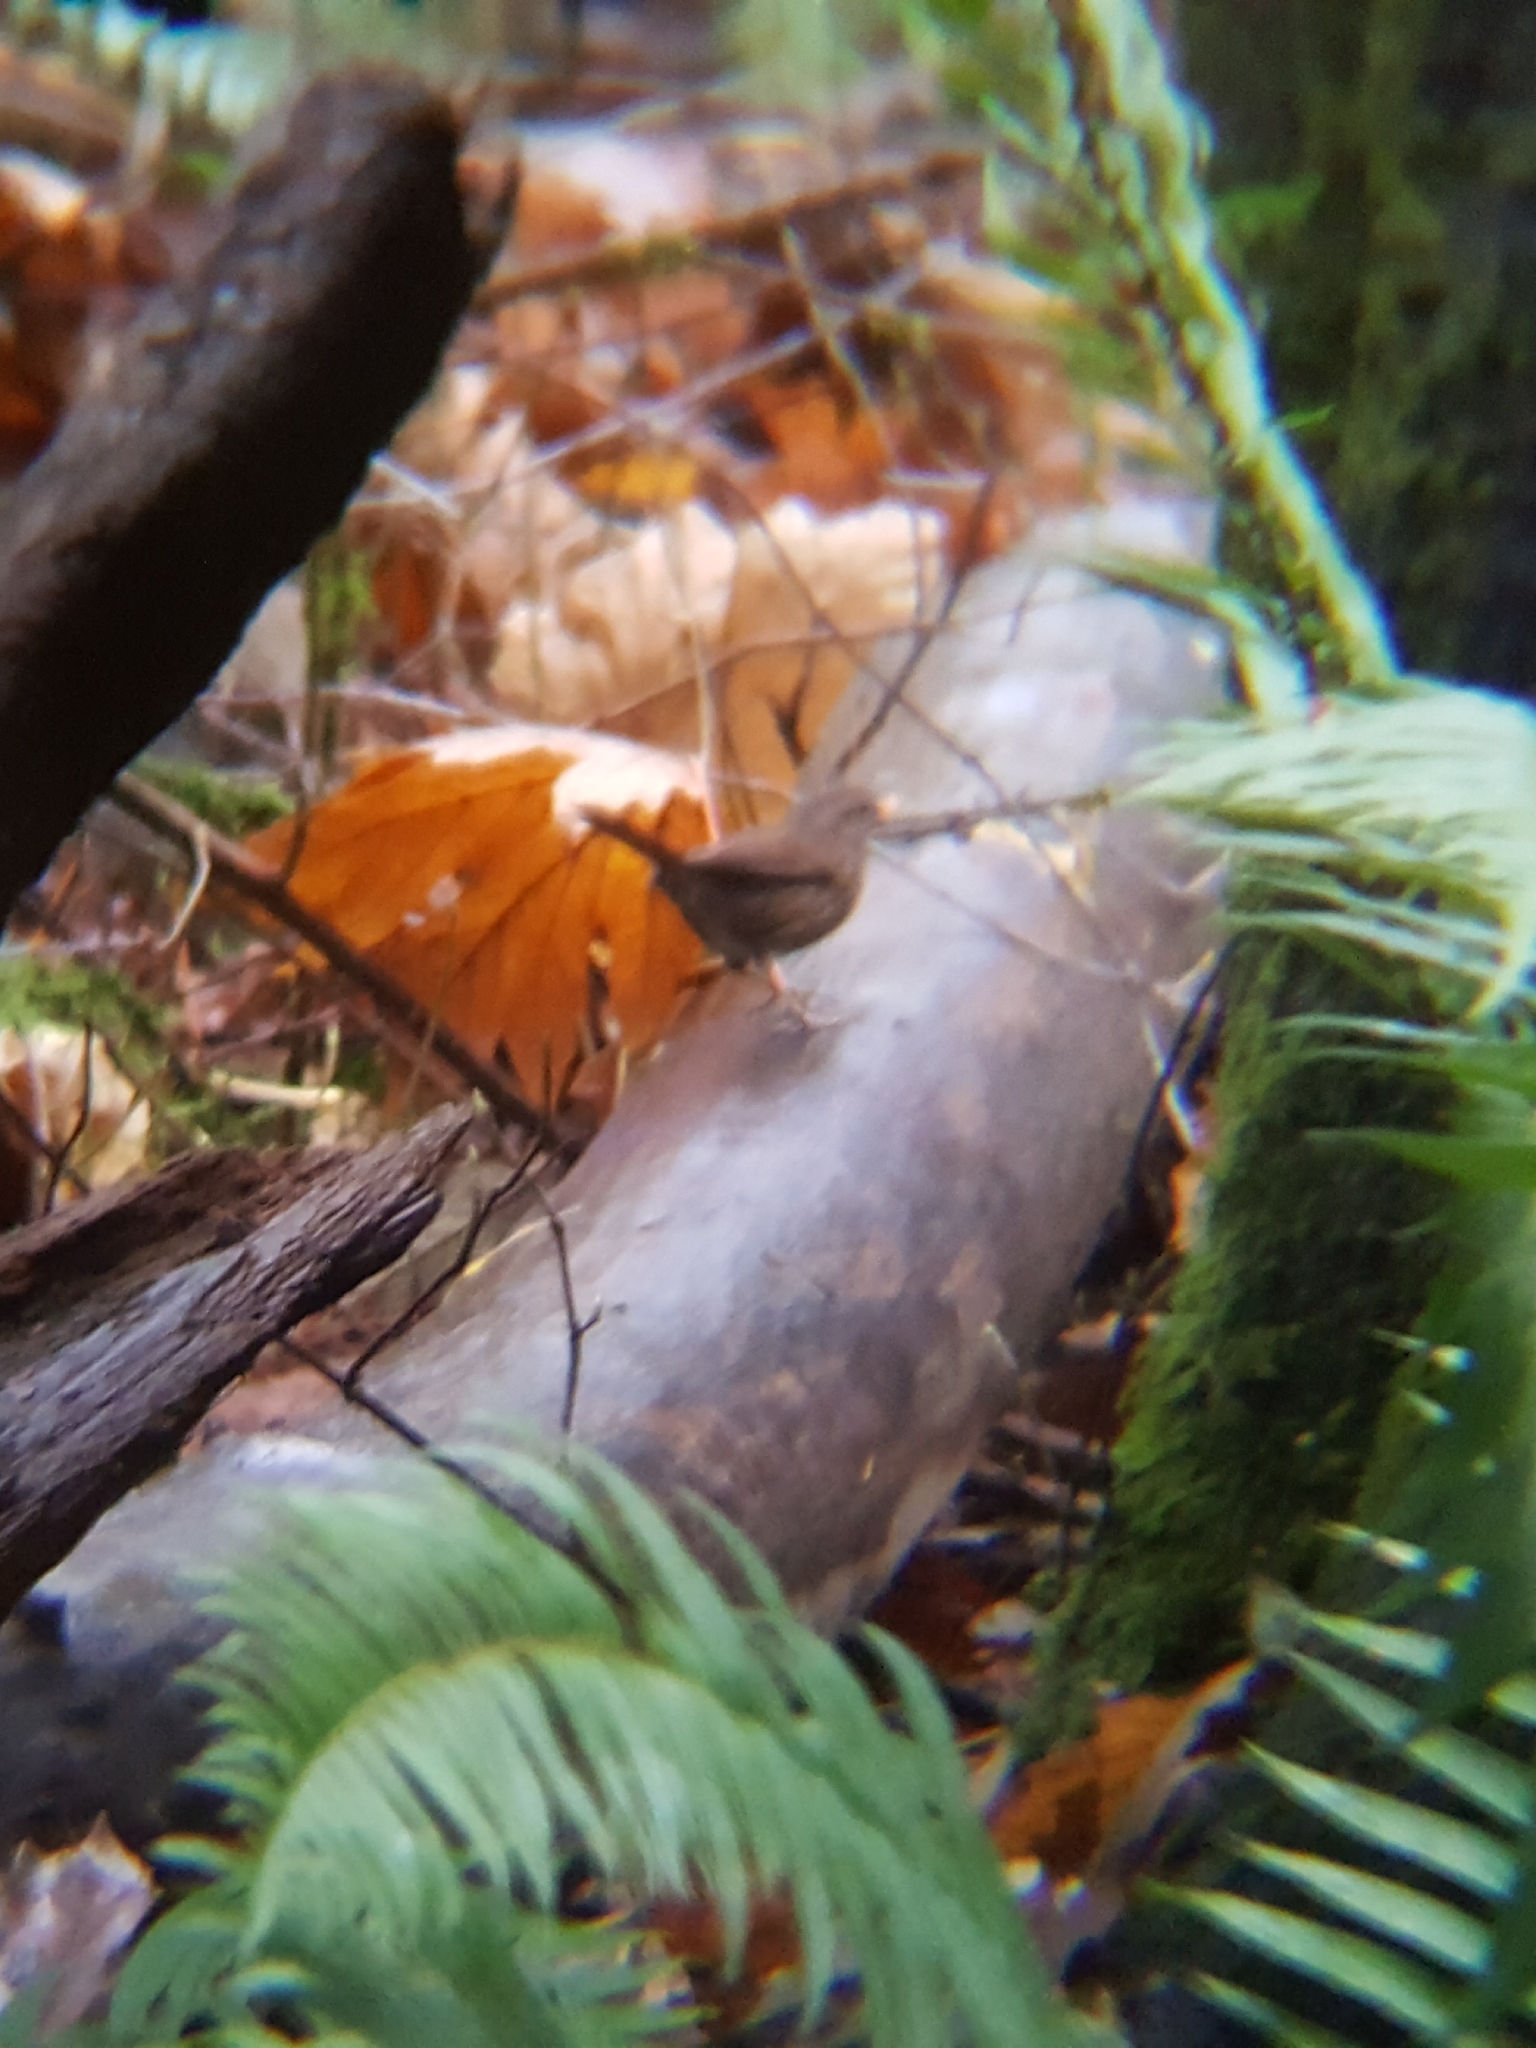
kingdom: Animalia
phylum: Chordata
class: Aves
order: Passeriformes
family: Passerellidae
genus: Melospiza
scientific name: Melospiza melodia
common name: Song sparrow
